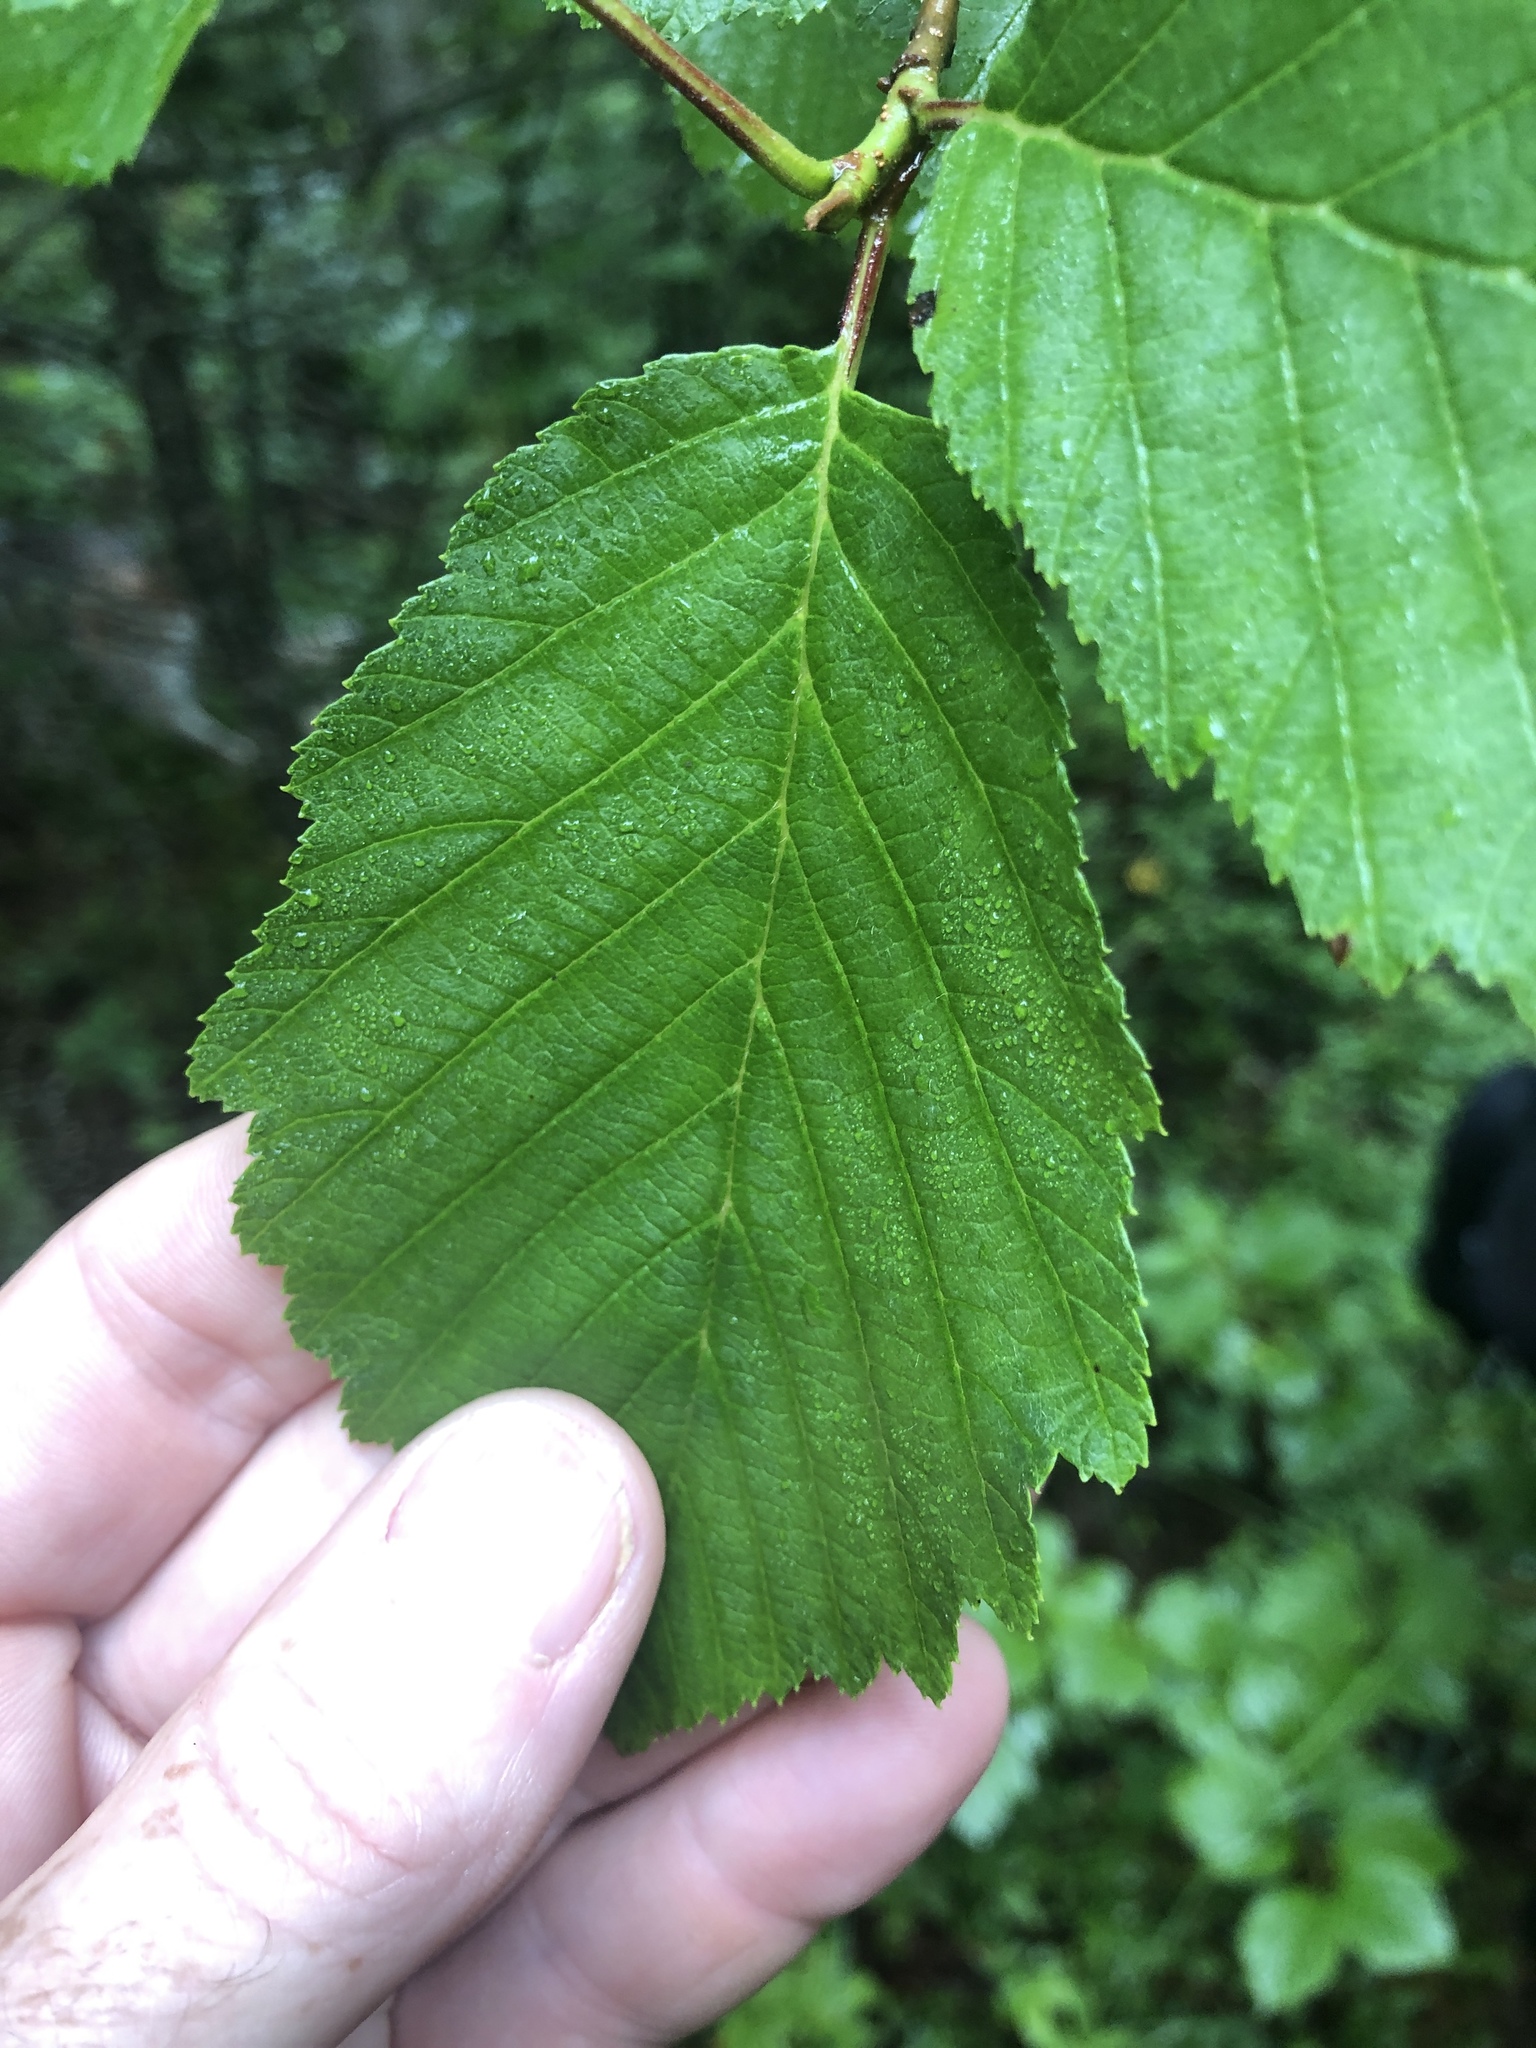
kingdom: Plantae
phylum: Tracheophyta
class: Magnoliopsida
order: Fagales
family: Betulaceae
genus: Alnus
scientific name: Alnus incana
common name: Grey alder
